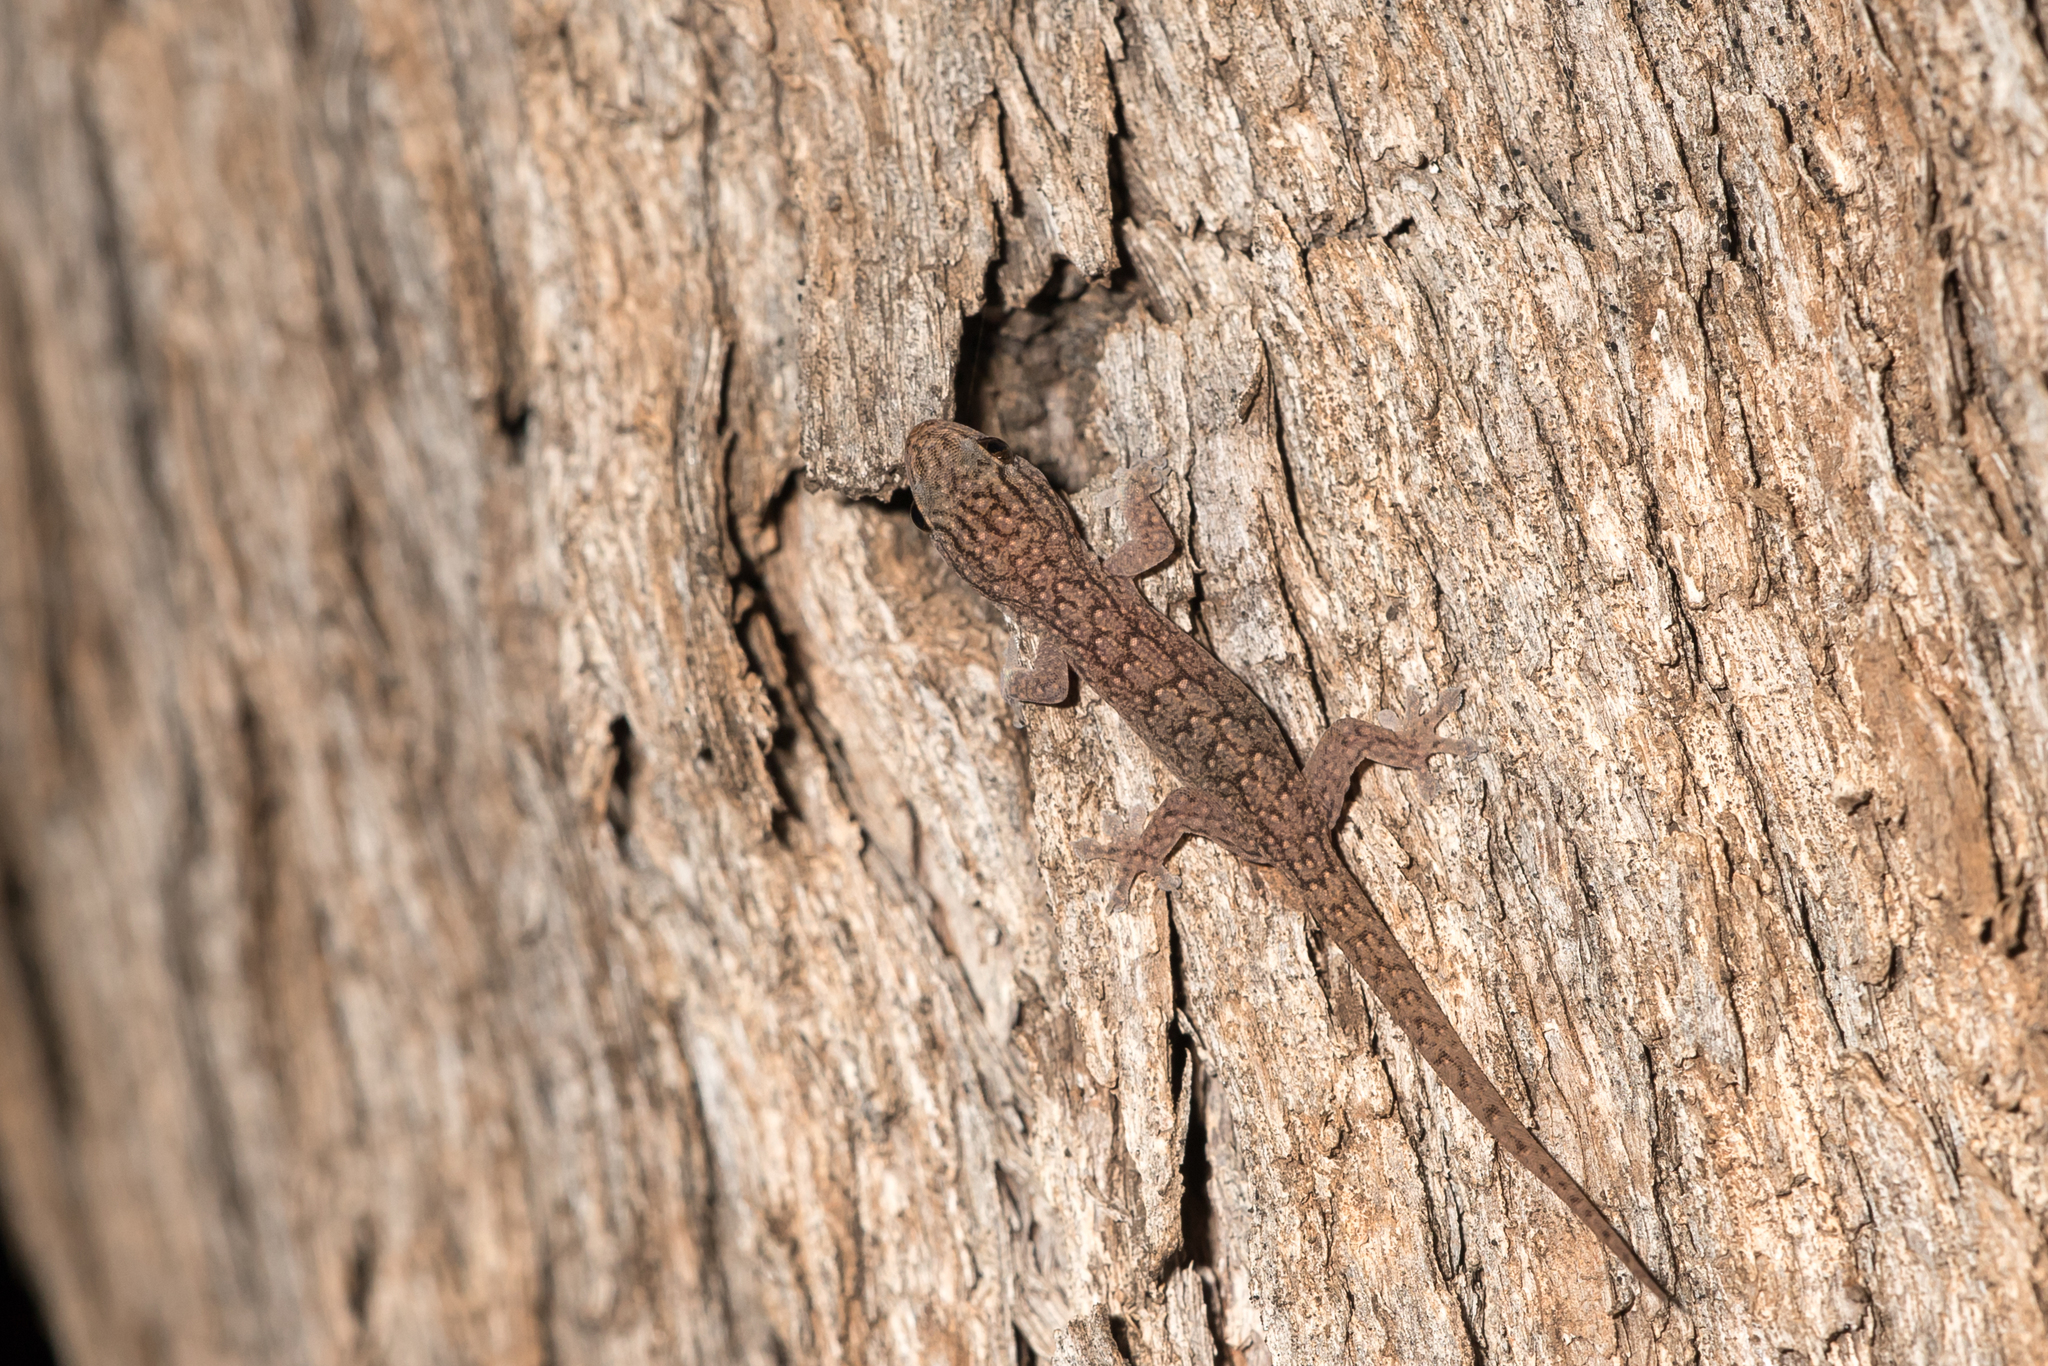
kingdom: Animalia
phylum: Chordata
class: Squamata
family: Gekkonidae
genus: Gehyra
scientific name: Gehyra versicolor
